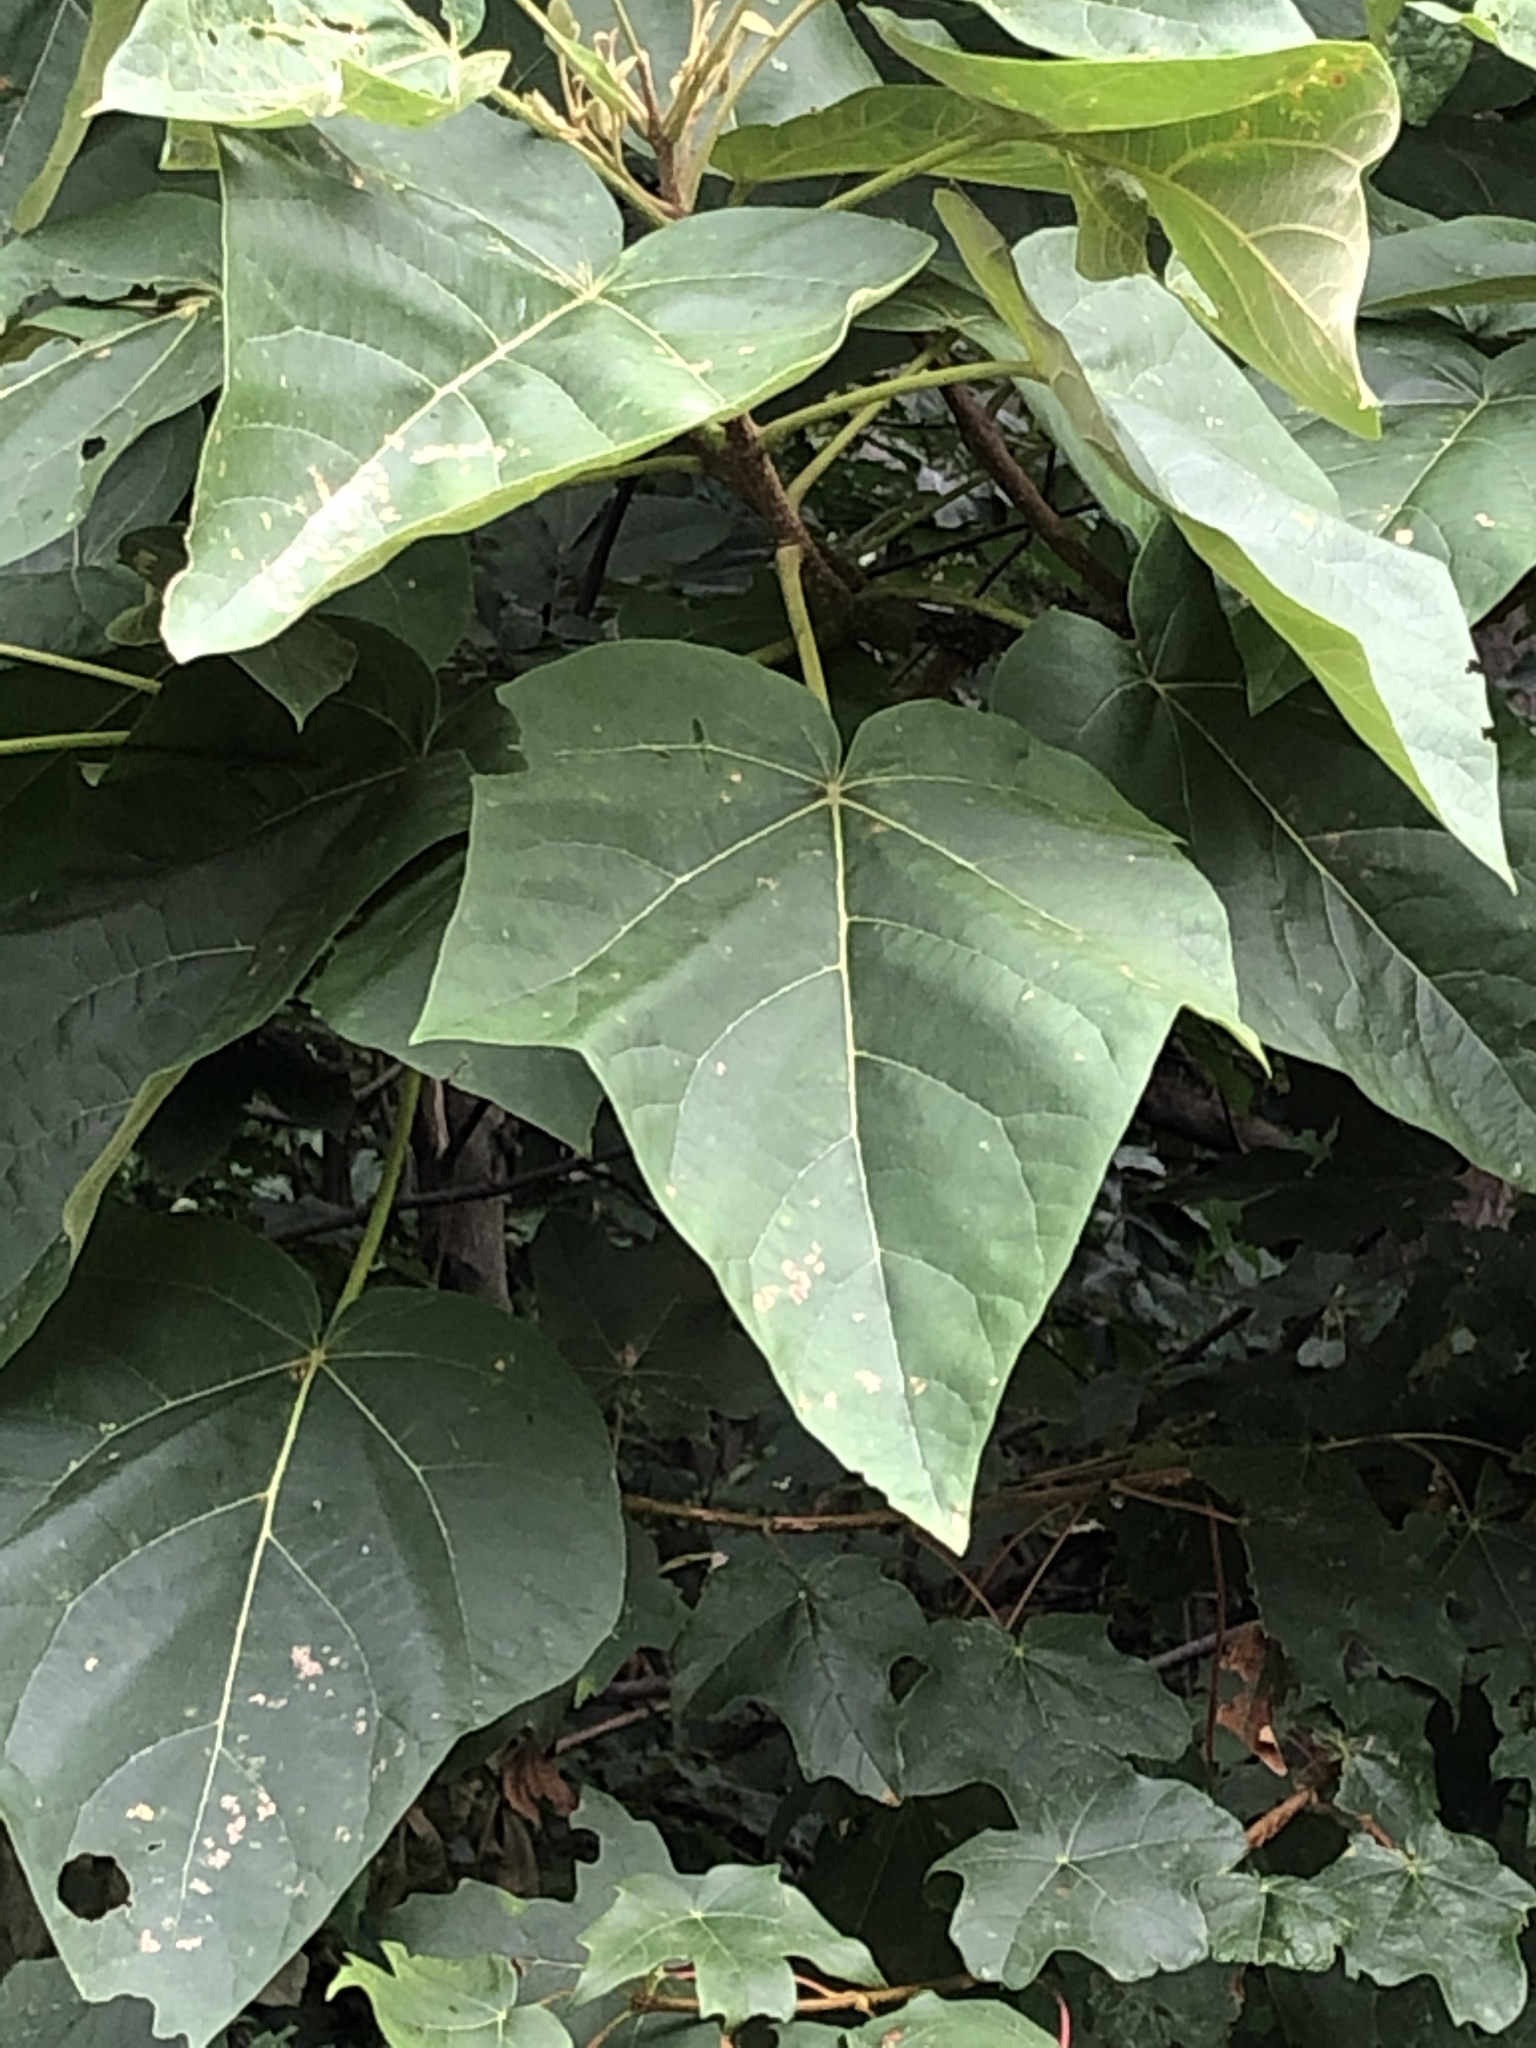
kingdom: Plantae
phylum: Tracheophyta
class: Magnoliopsida
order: Lamiales
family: Paulowniaceae
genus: Paulownia
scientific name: Paulownia tomentosa
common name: Foxglove-tree
